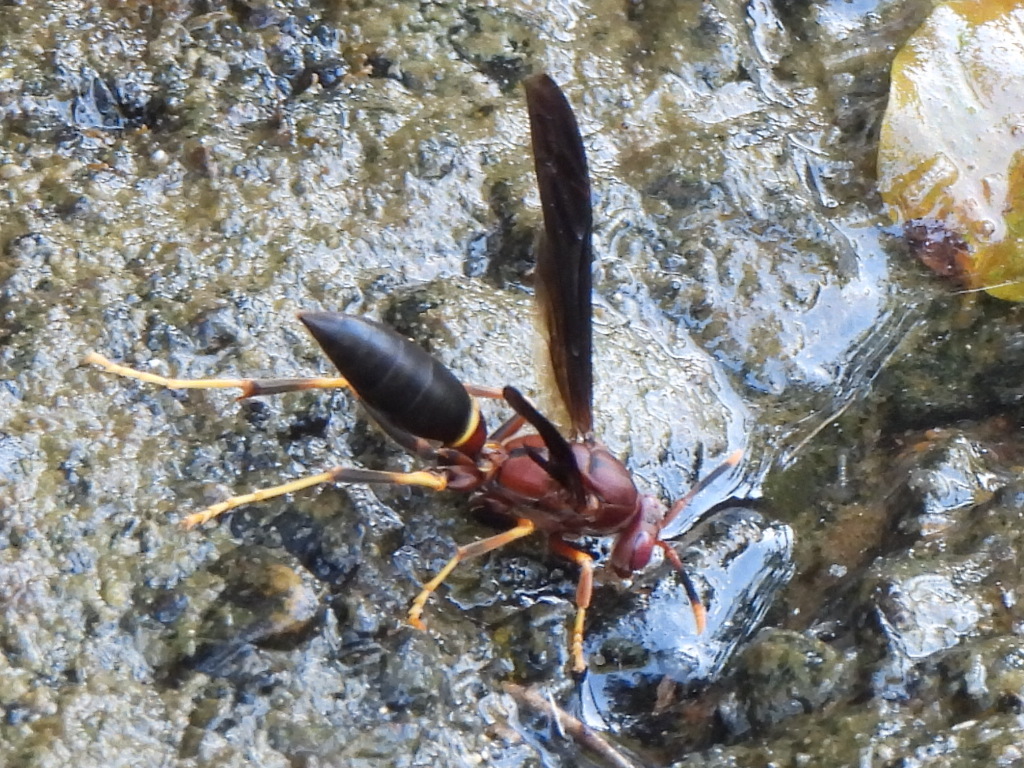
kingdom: Animalia
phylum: Arthropoda
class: Insecta
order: Hymenoptera
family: Eumenidae
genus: Polistes
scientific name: Polistes annularis
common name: Ringed paper wasp
